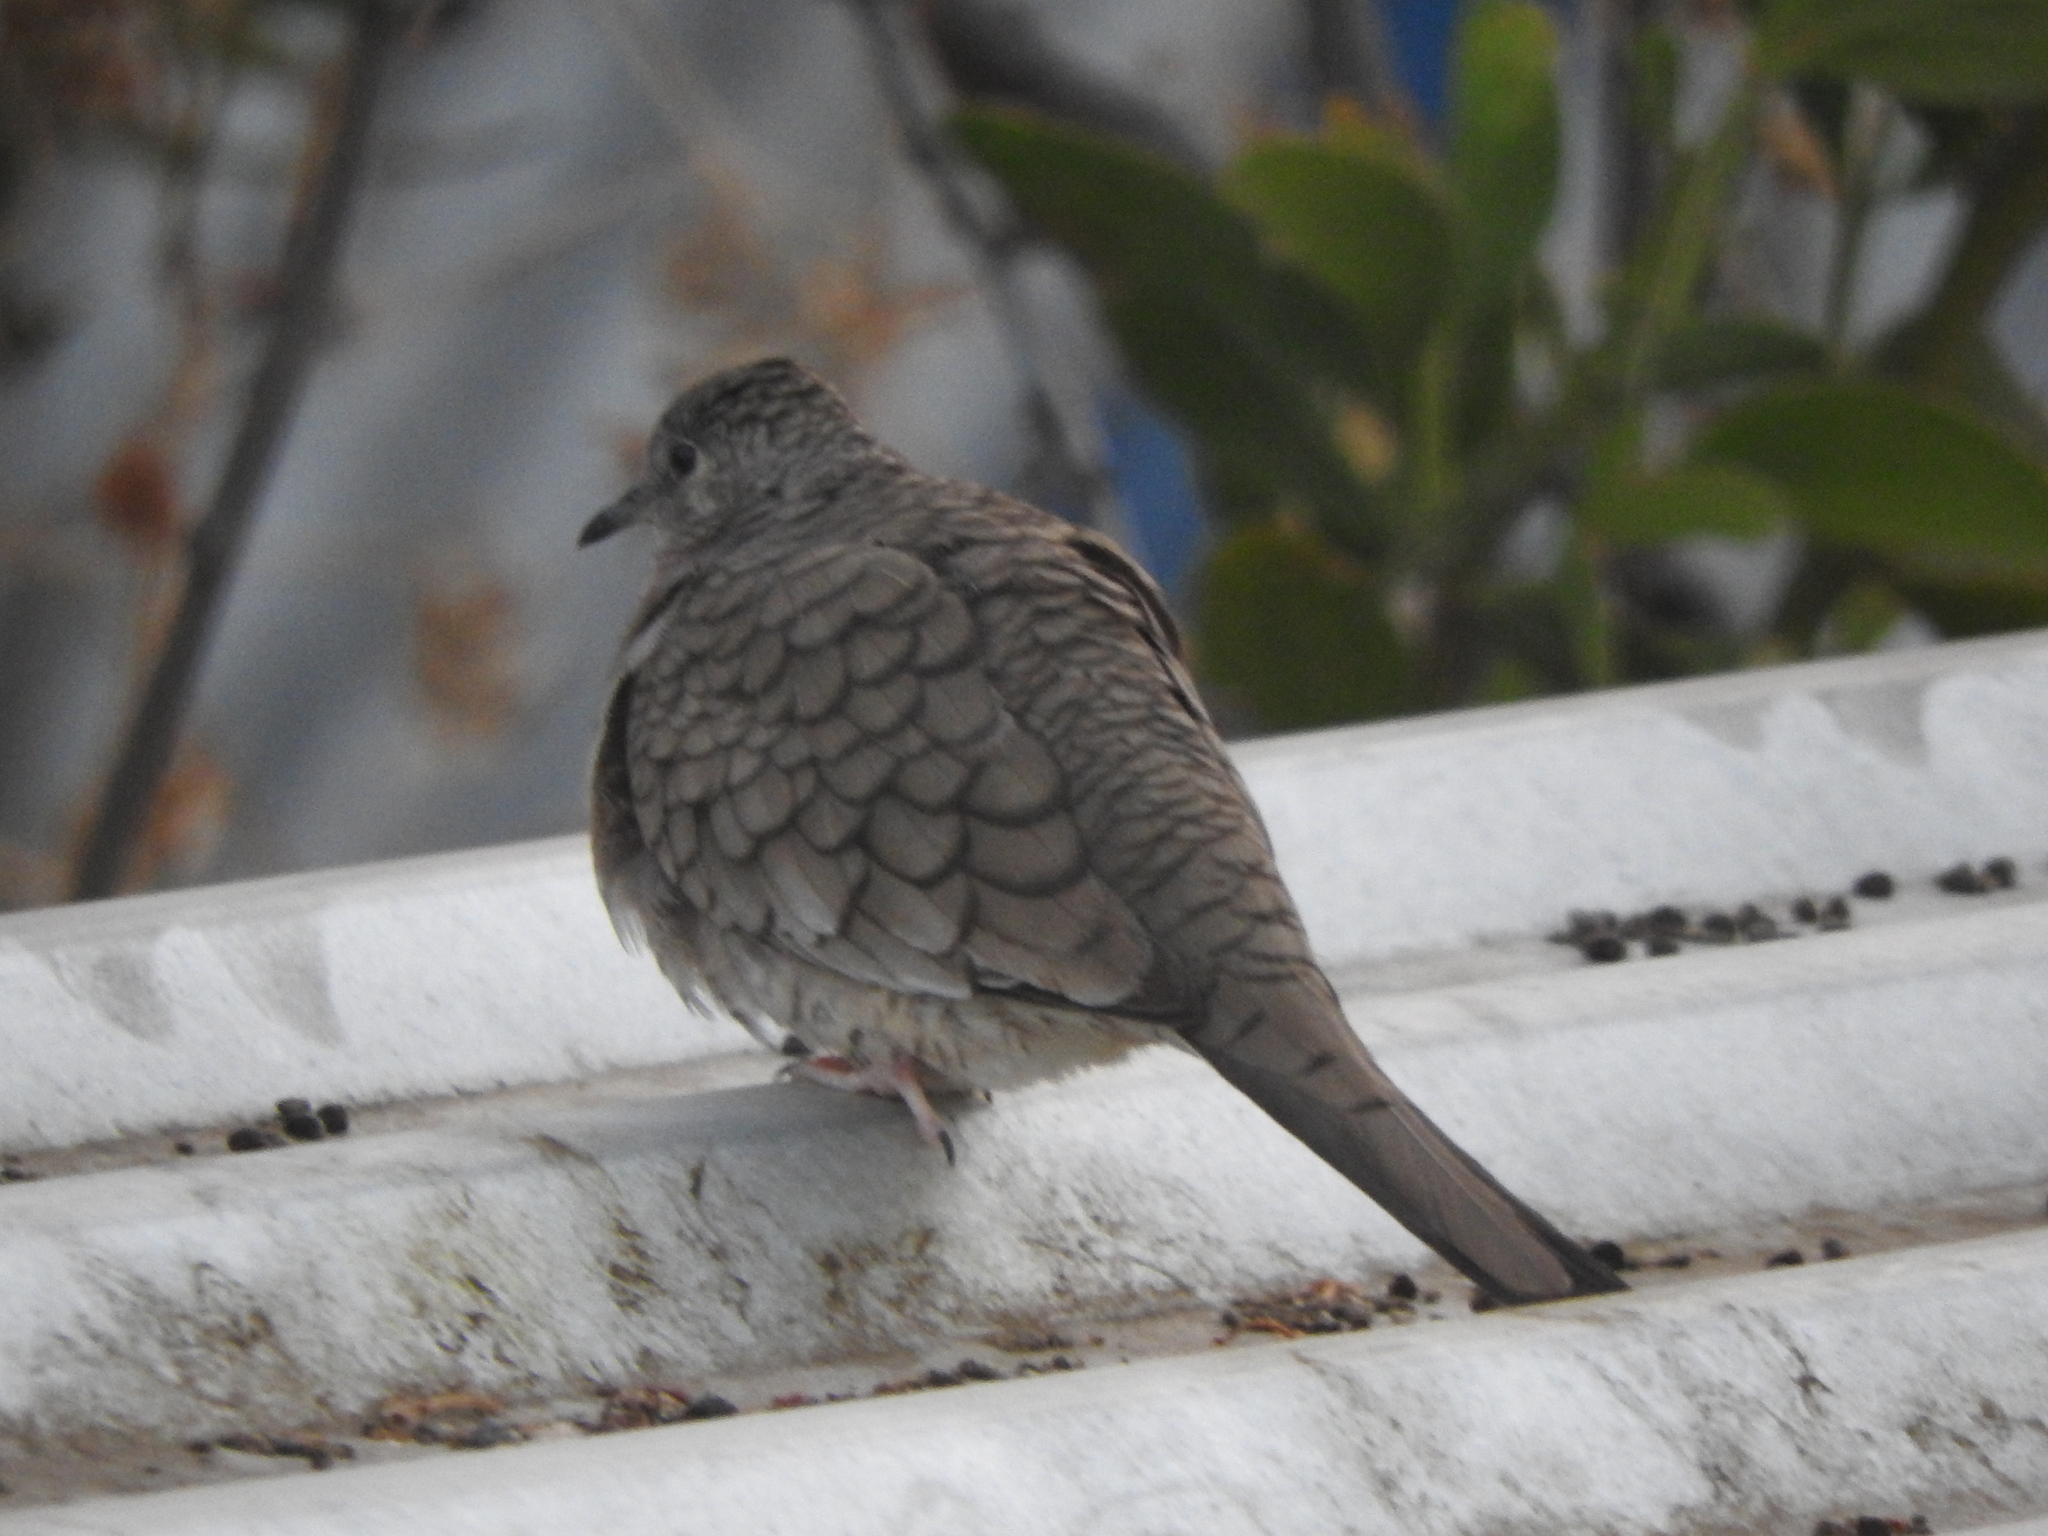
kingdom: Animalia
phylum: Chordata
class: Aves
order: Columbiformes
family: Columbidae
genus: Columbina
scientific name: Columbina inca
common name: Inca dove
